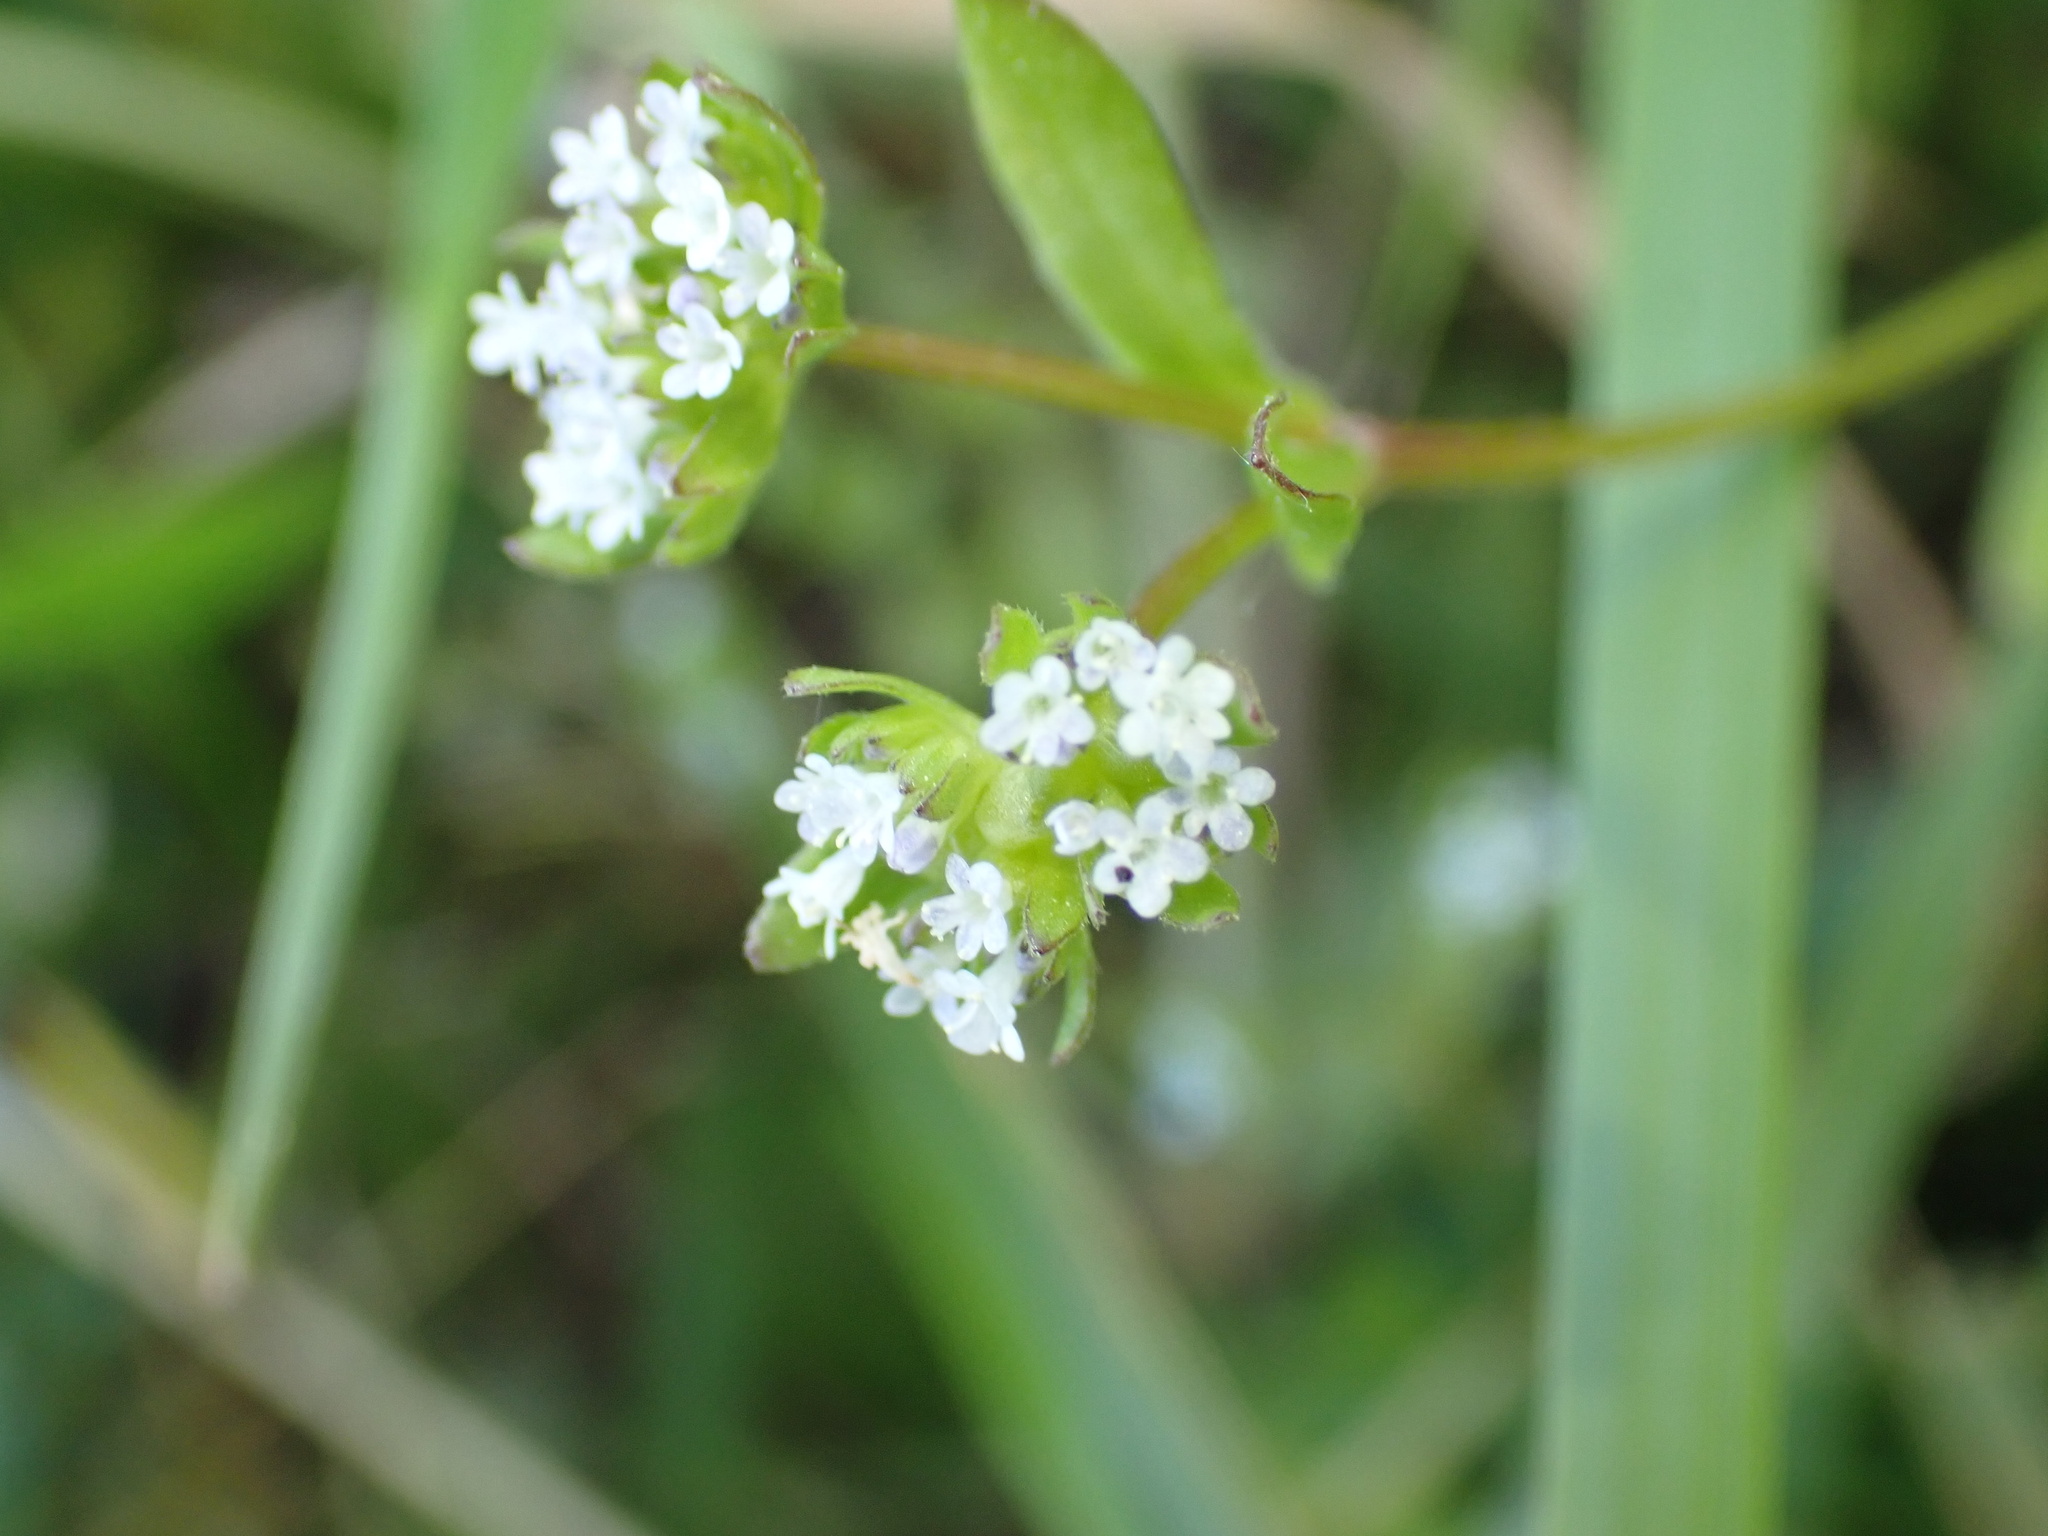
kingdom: Plantae
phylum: Tracheophyta
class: Magnoliopsida
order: Dipsacales
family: Caprifoliaceae
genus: Valerianella
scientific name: Valerianella locusta
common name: Common cornsalad
